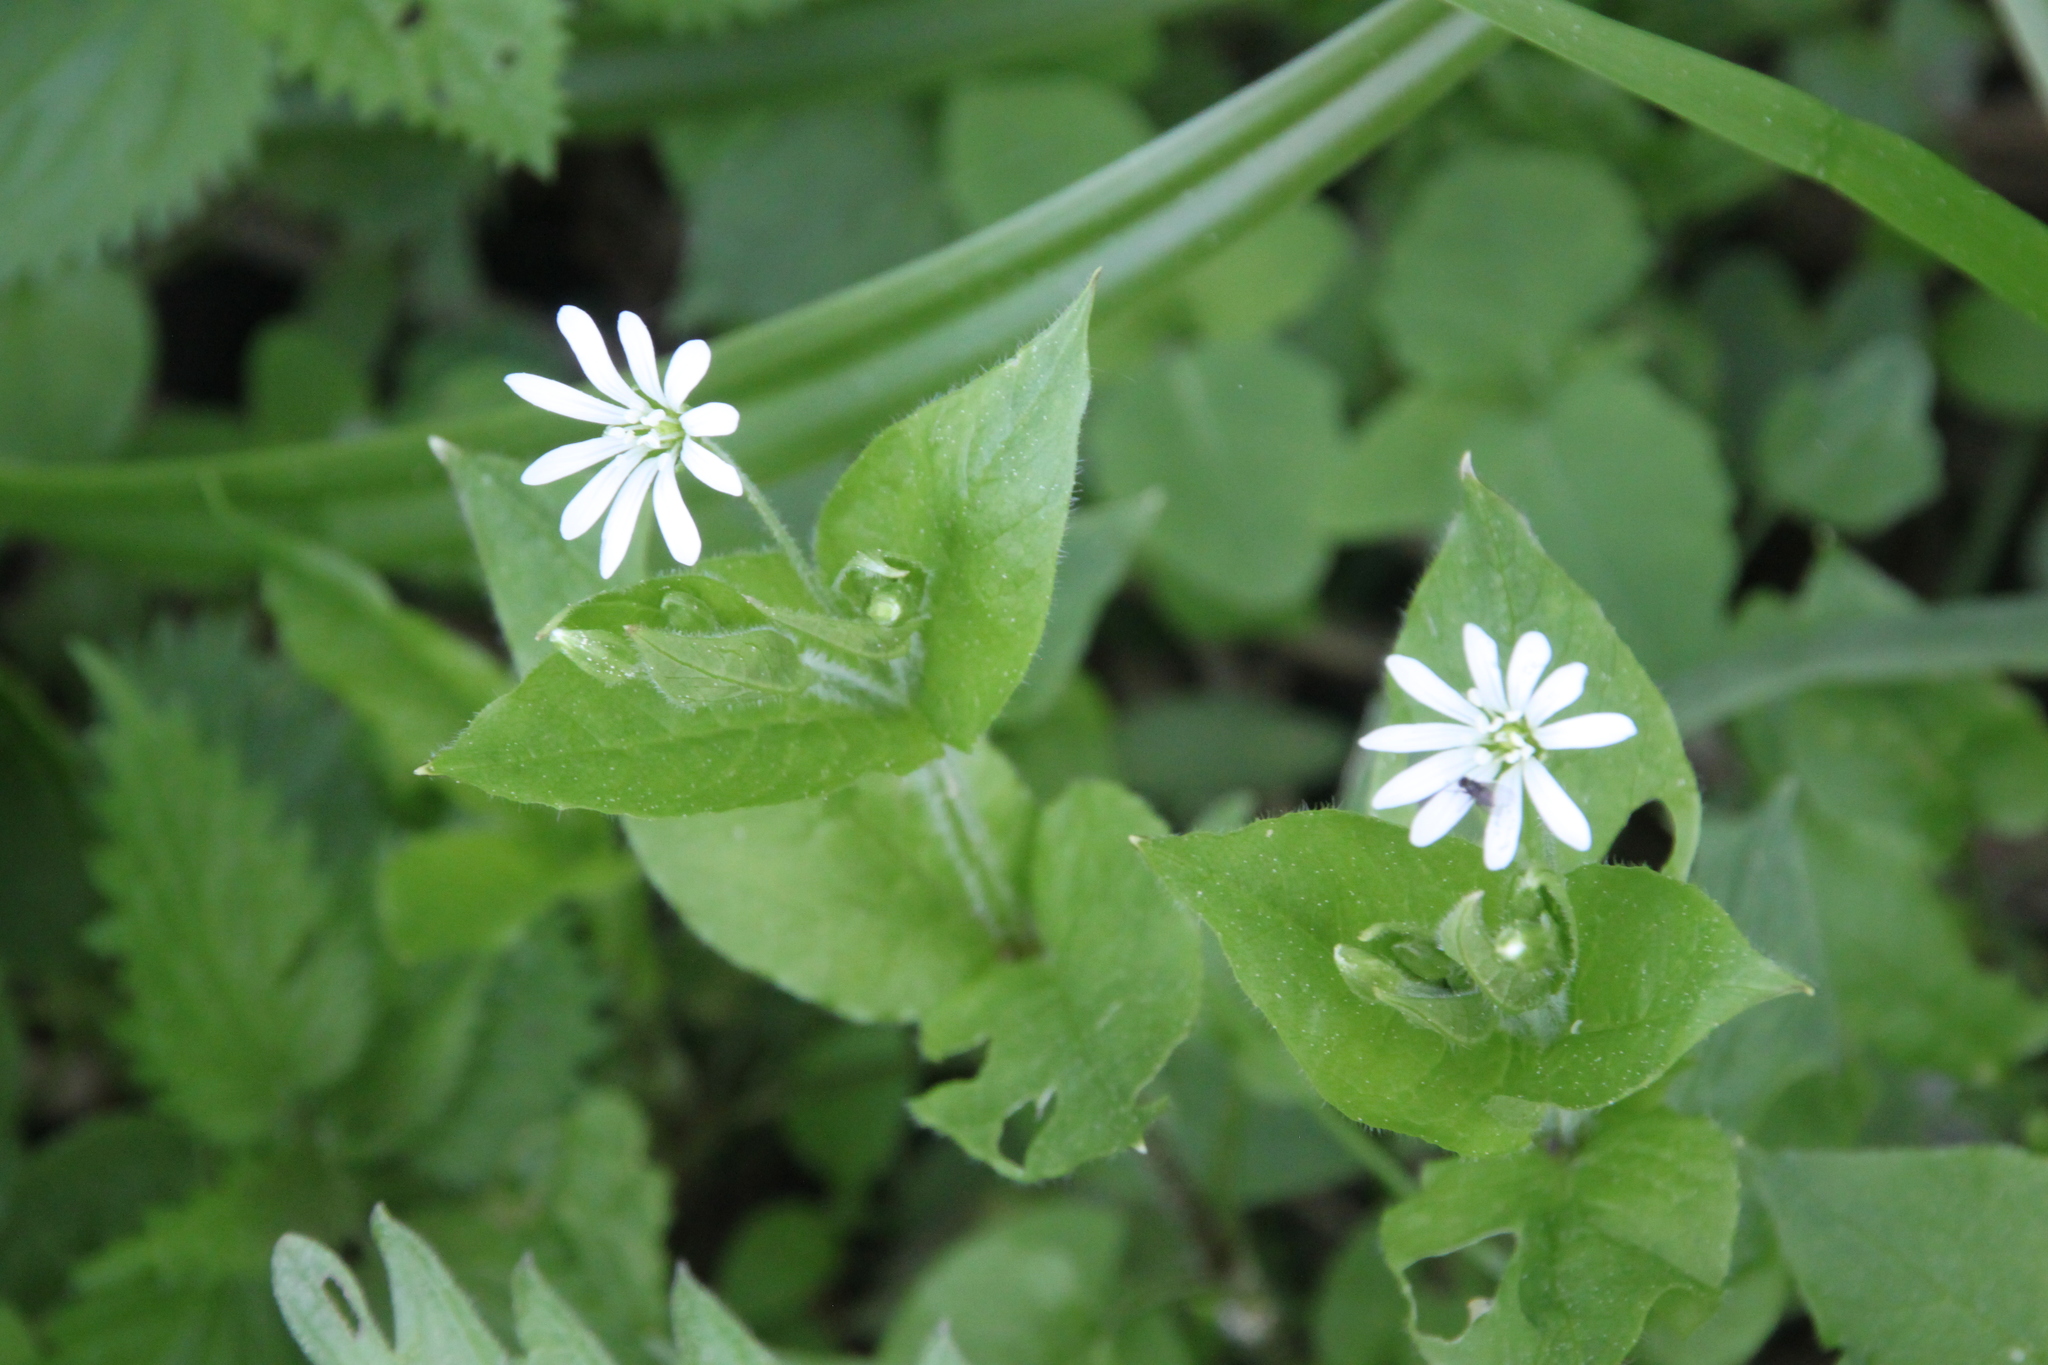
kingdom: Plantae
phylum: Tracheophyta
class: Magnoliopsida
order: Caryophyllales
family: Caryophyllaceae
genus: Stellaria
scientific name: Stellaria nemorum
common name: Wood stitchwort
